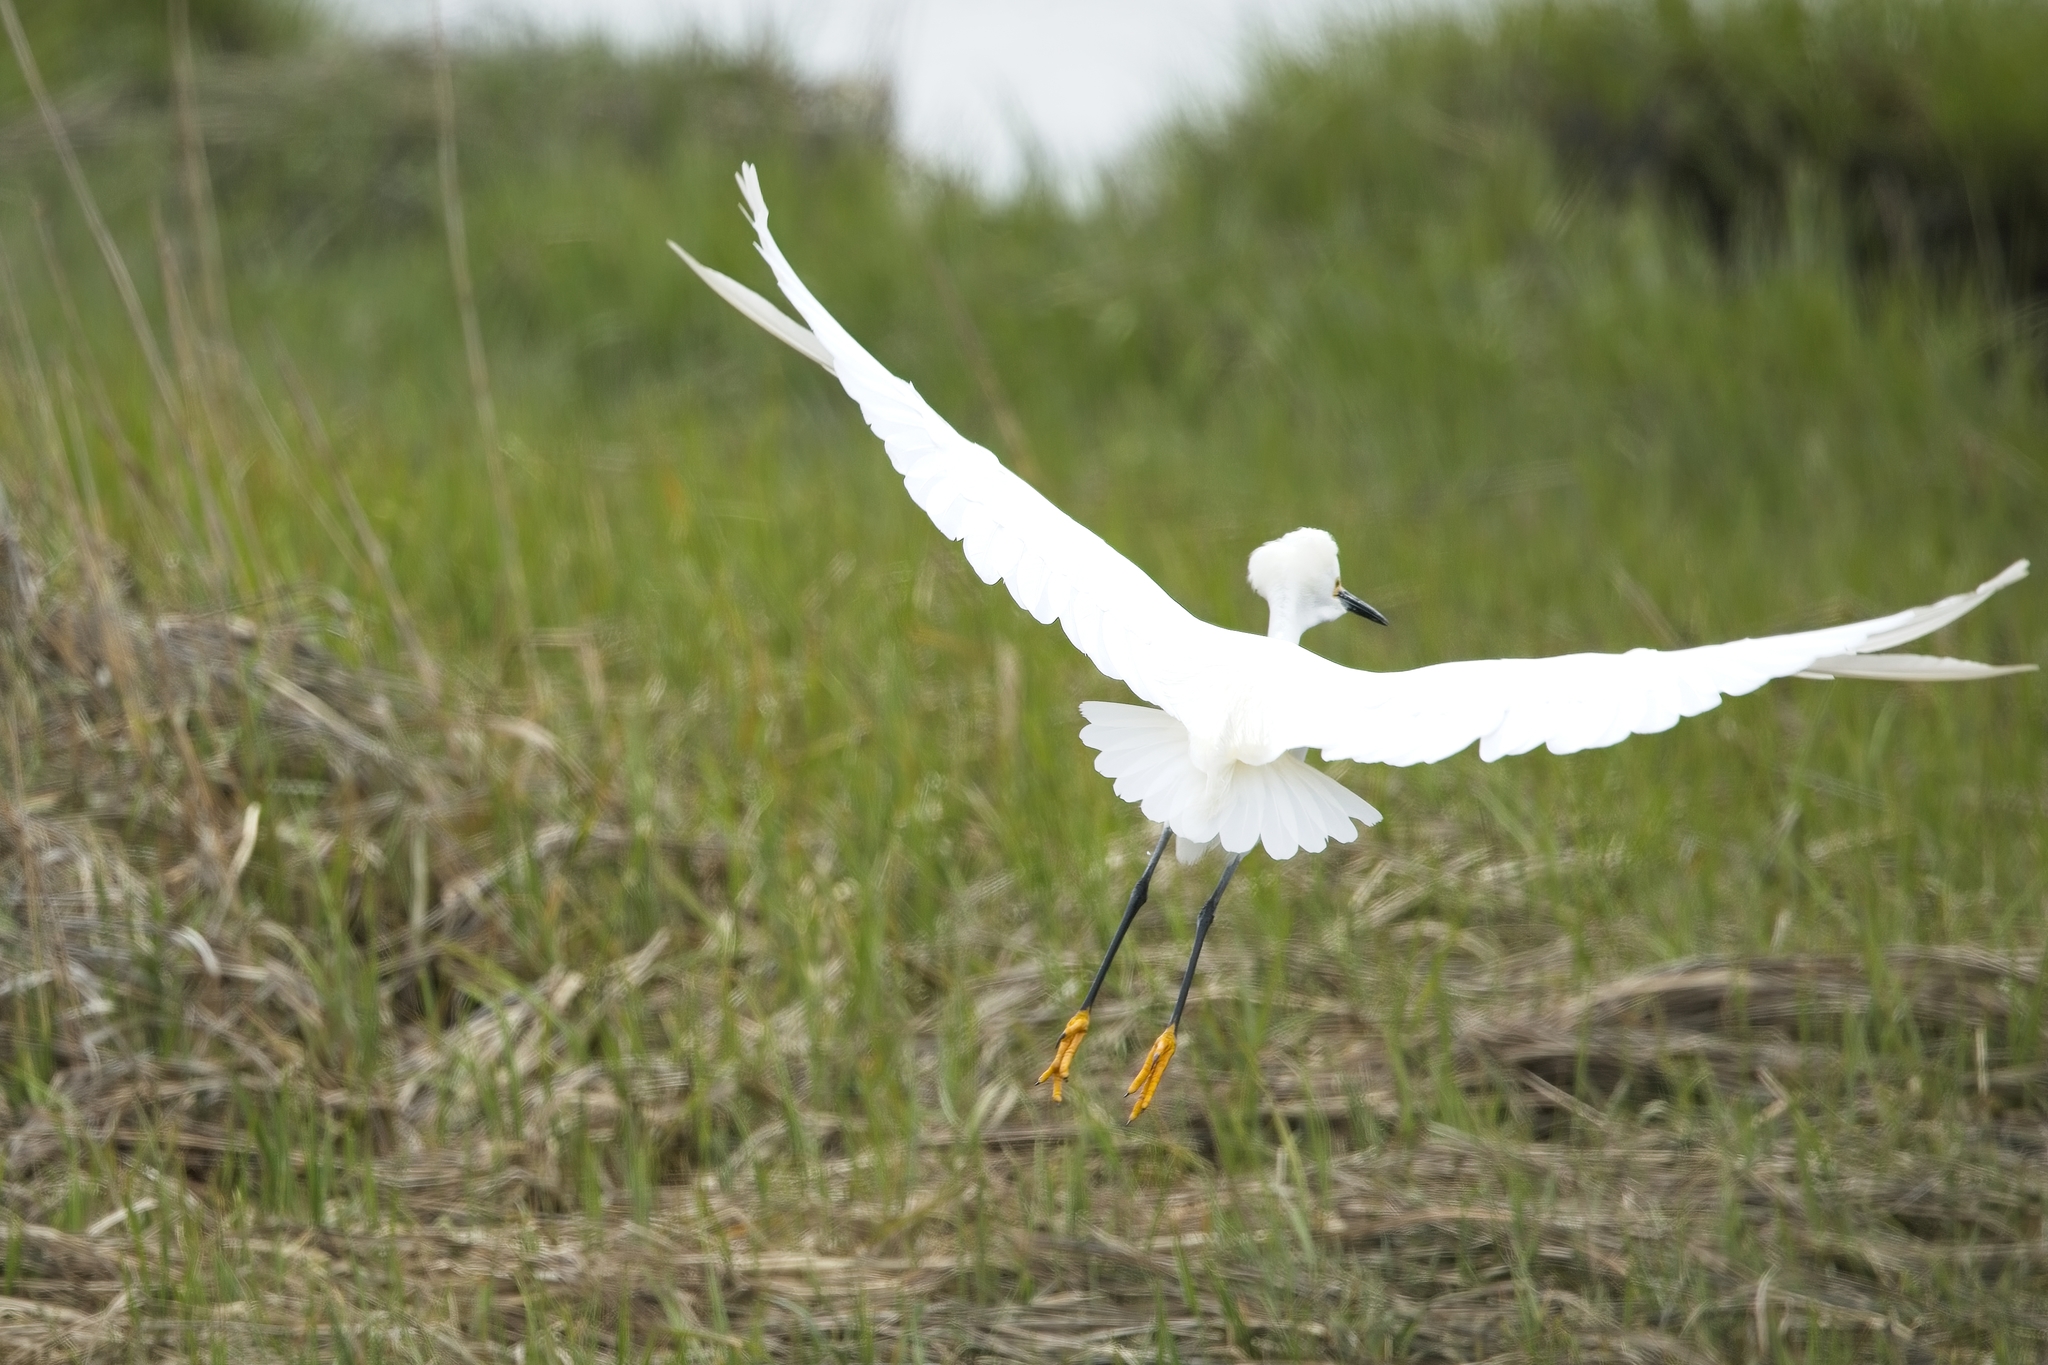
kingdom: Animalia
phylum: Chordata
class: Aves
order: Pelecaniformes
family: Ardeidae
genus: Egretta
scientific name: Egretta thula
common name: Snowy egret
